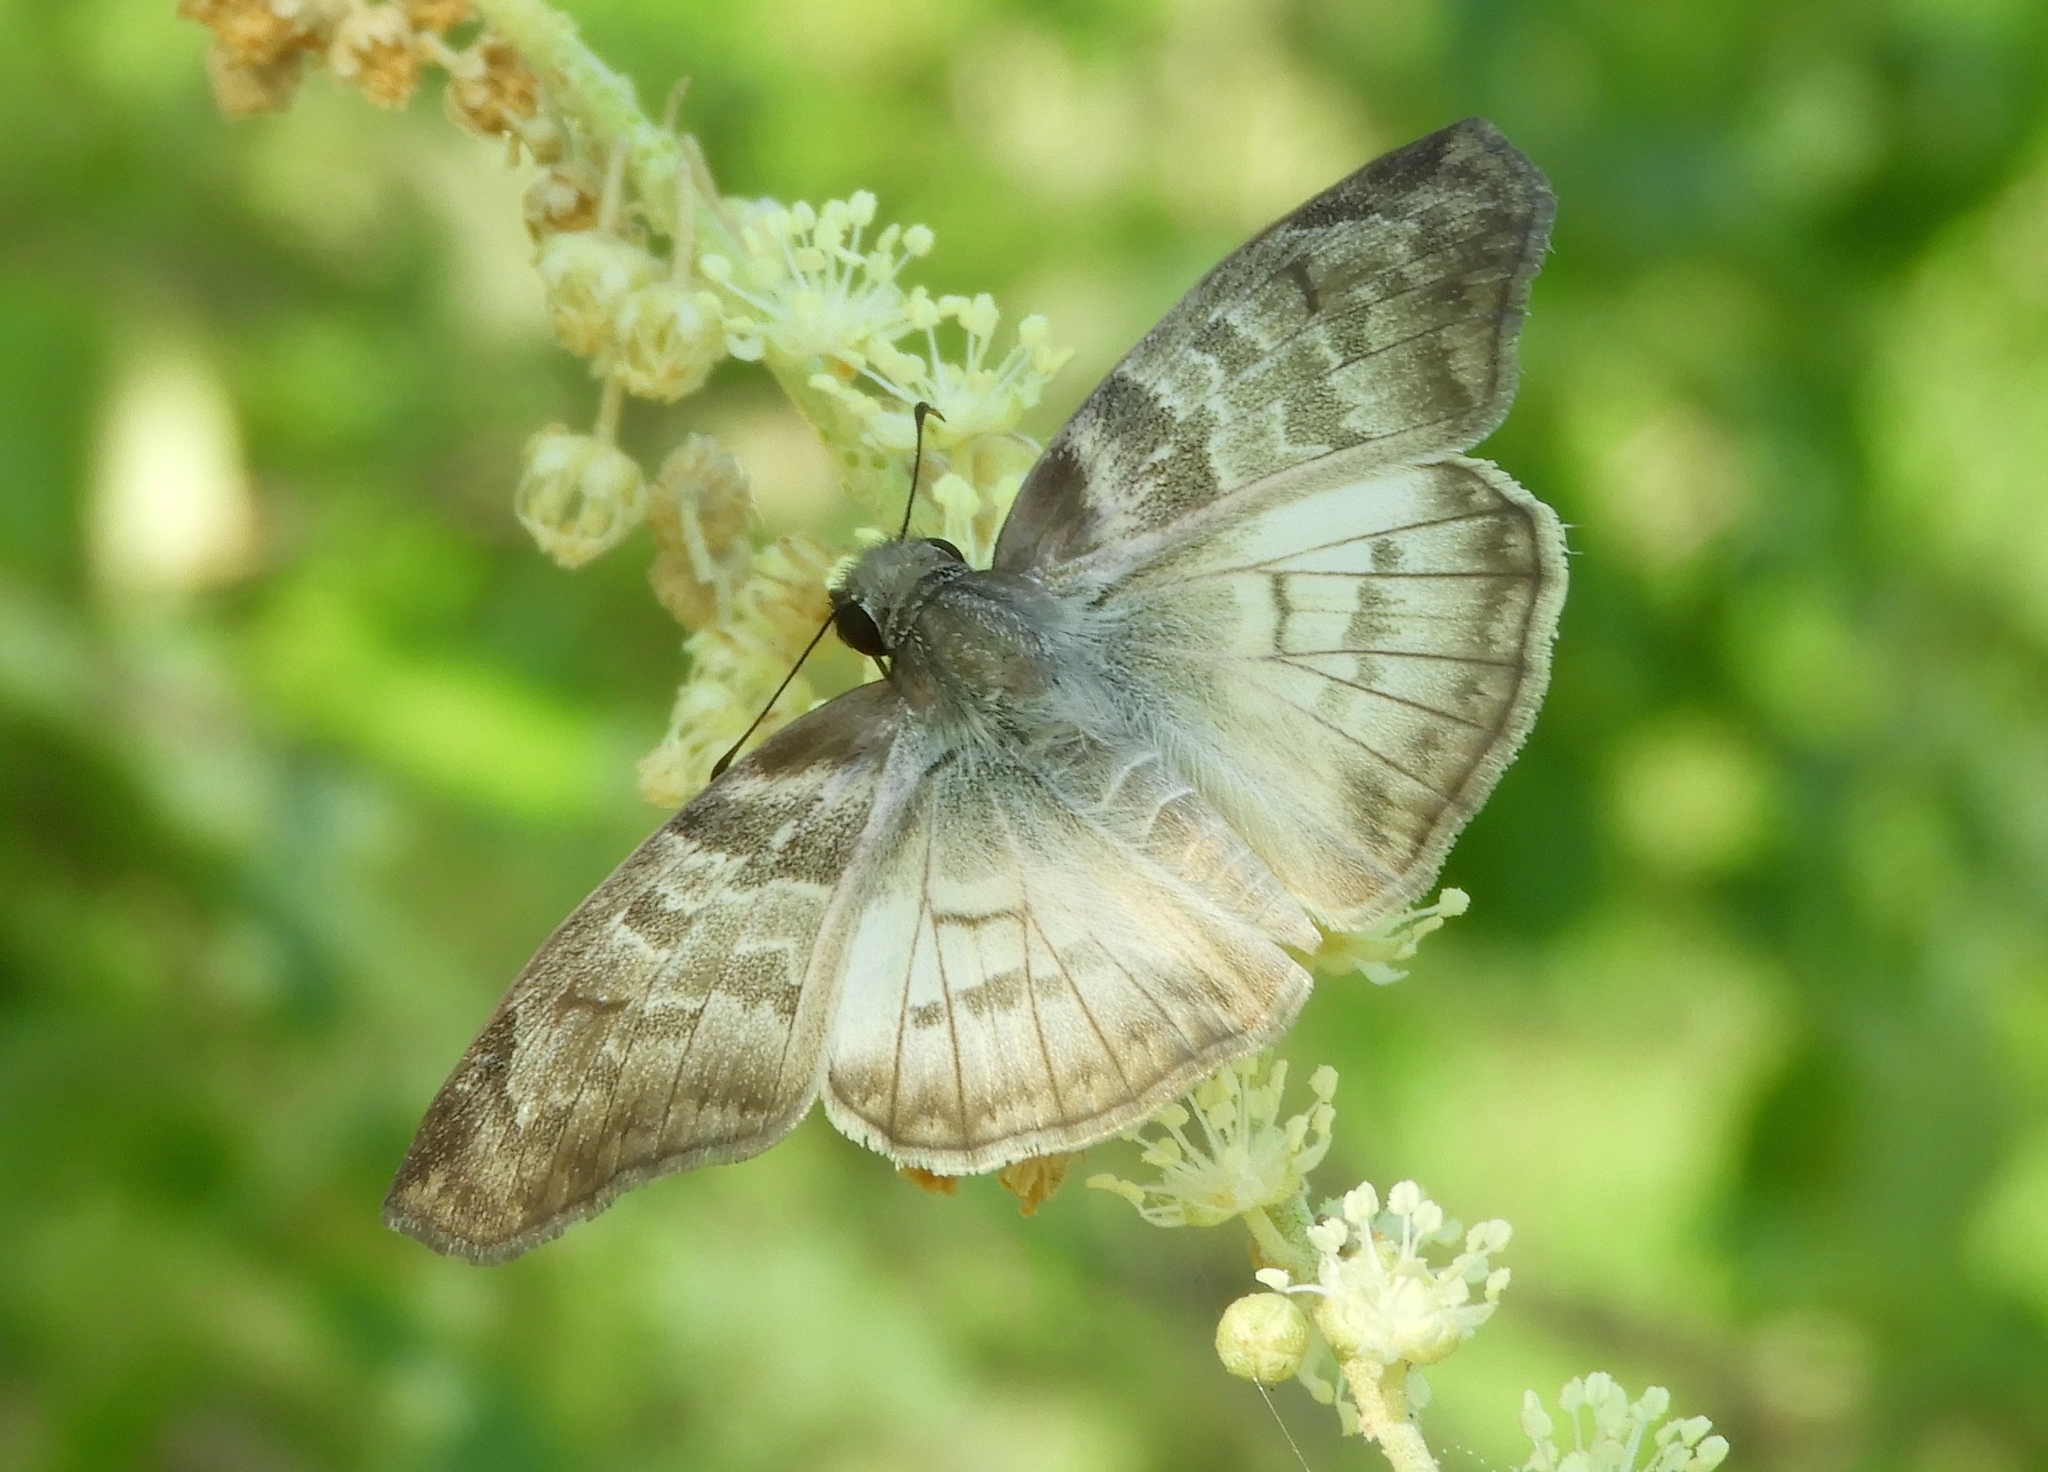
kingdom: Animalia
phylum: Arthropoda
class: Insecta
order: Lepidoptera
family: Hesperiidae
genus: Mylon
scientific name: Mylon pelopidas
